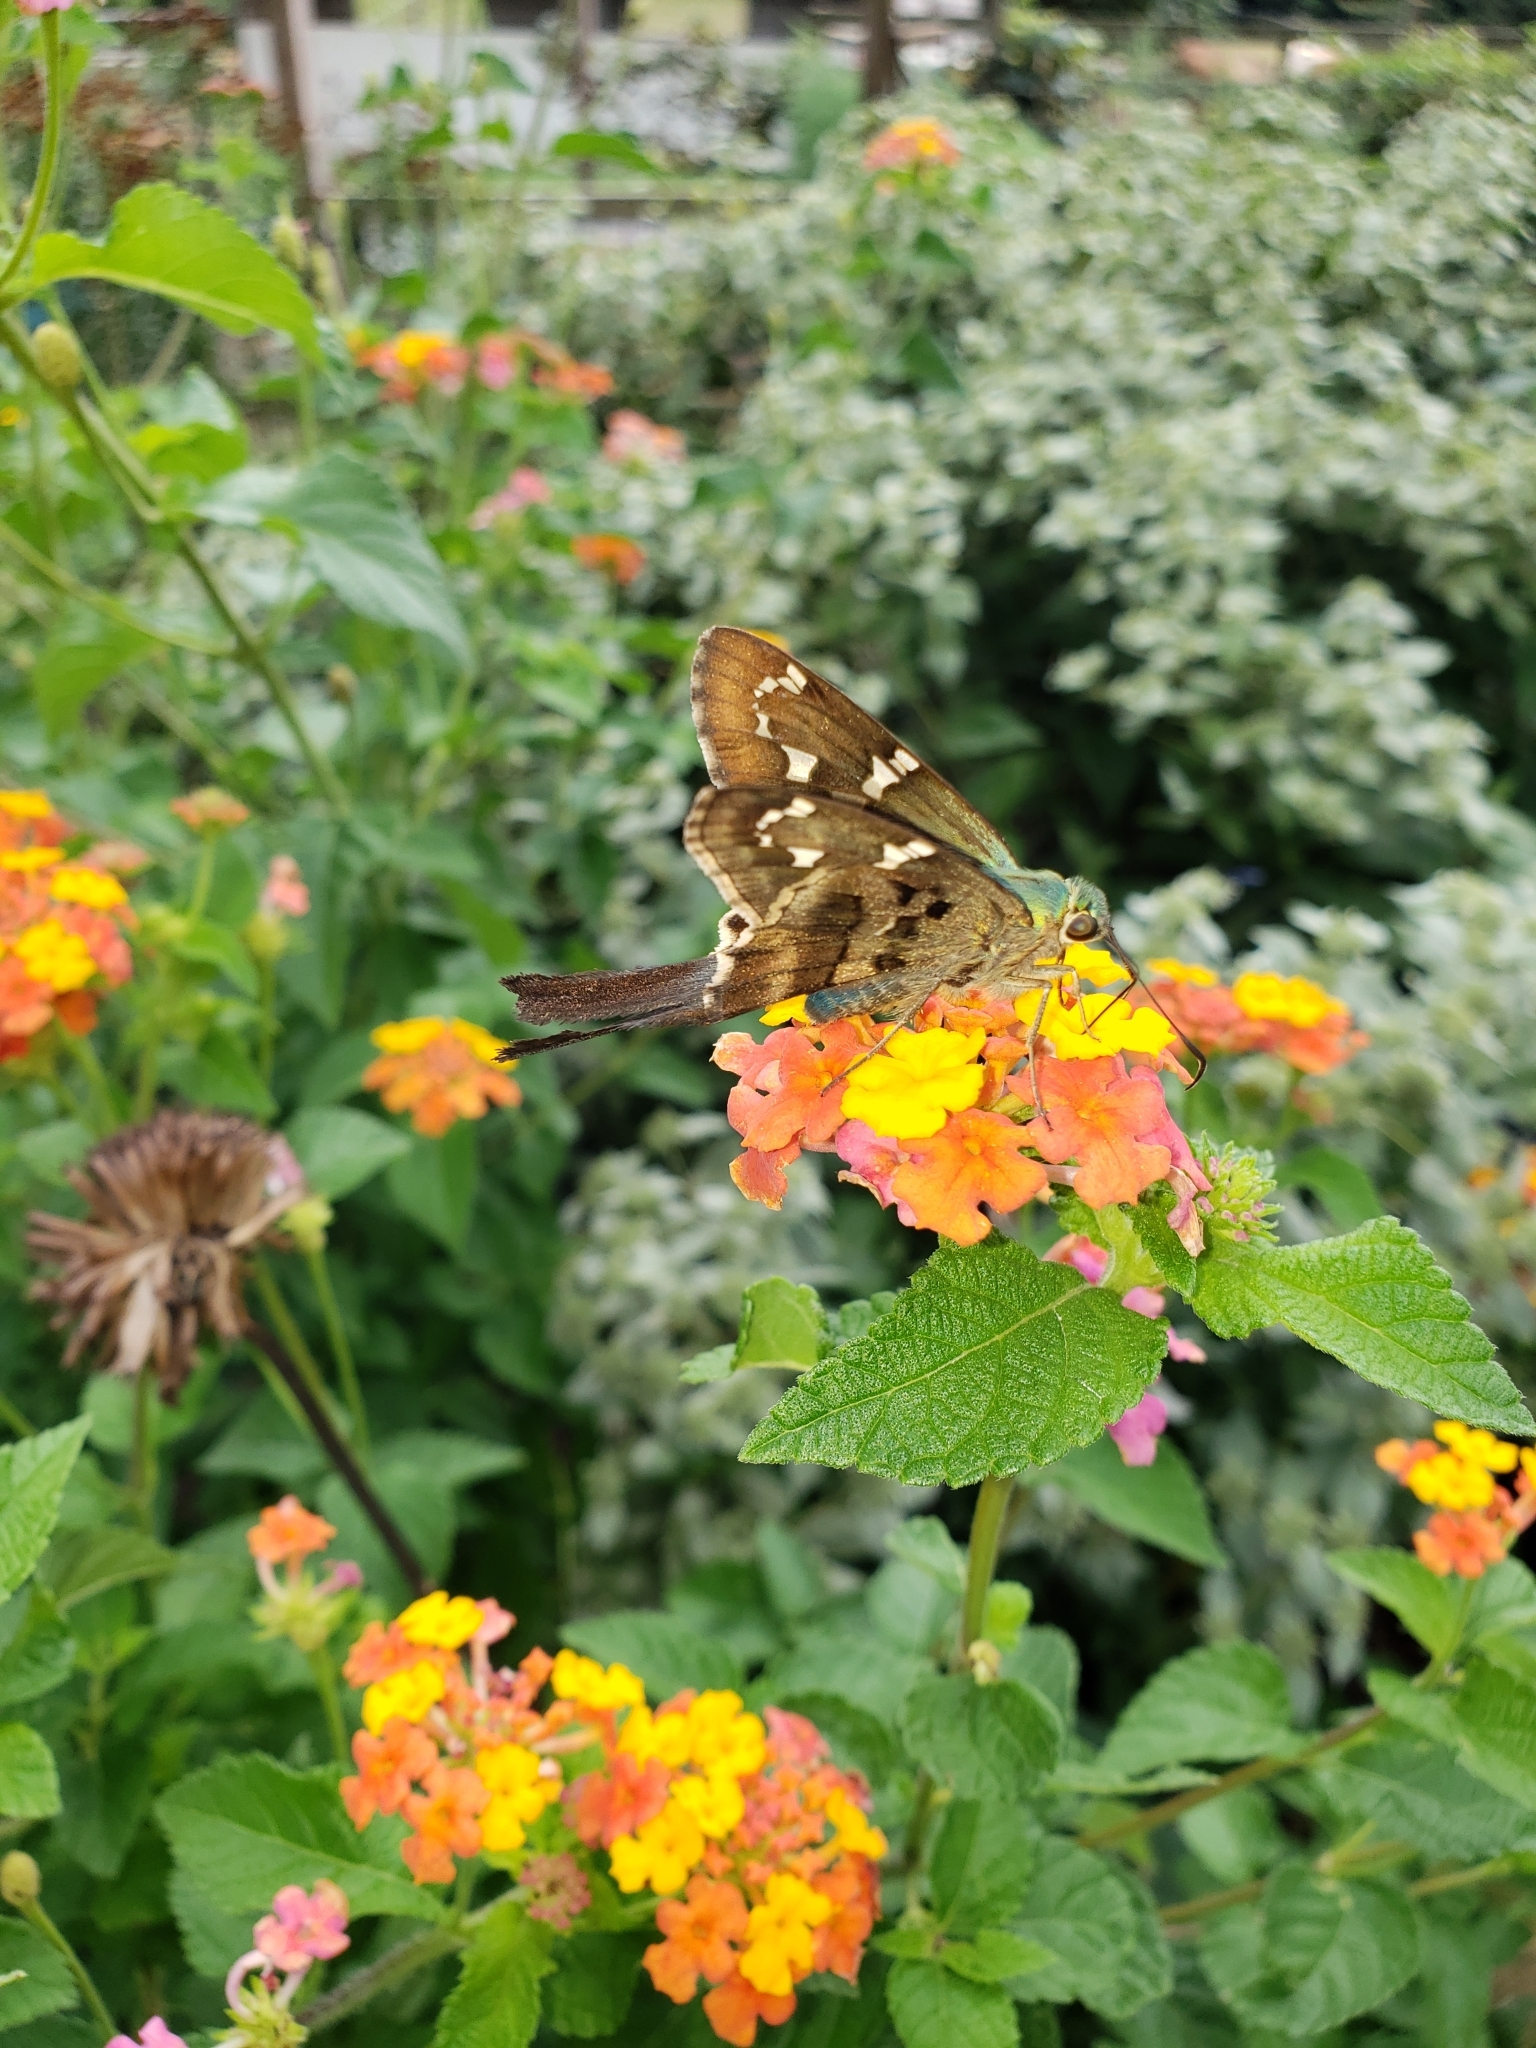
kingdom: Animalia
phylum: Arthropoda
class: Insecta
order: Lepidoptera
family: Hesperiidae
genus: Urbanus
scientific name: Urbanus proteus
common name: Long-tailed skipper
